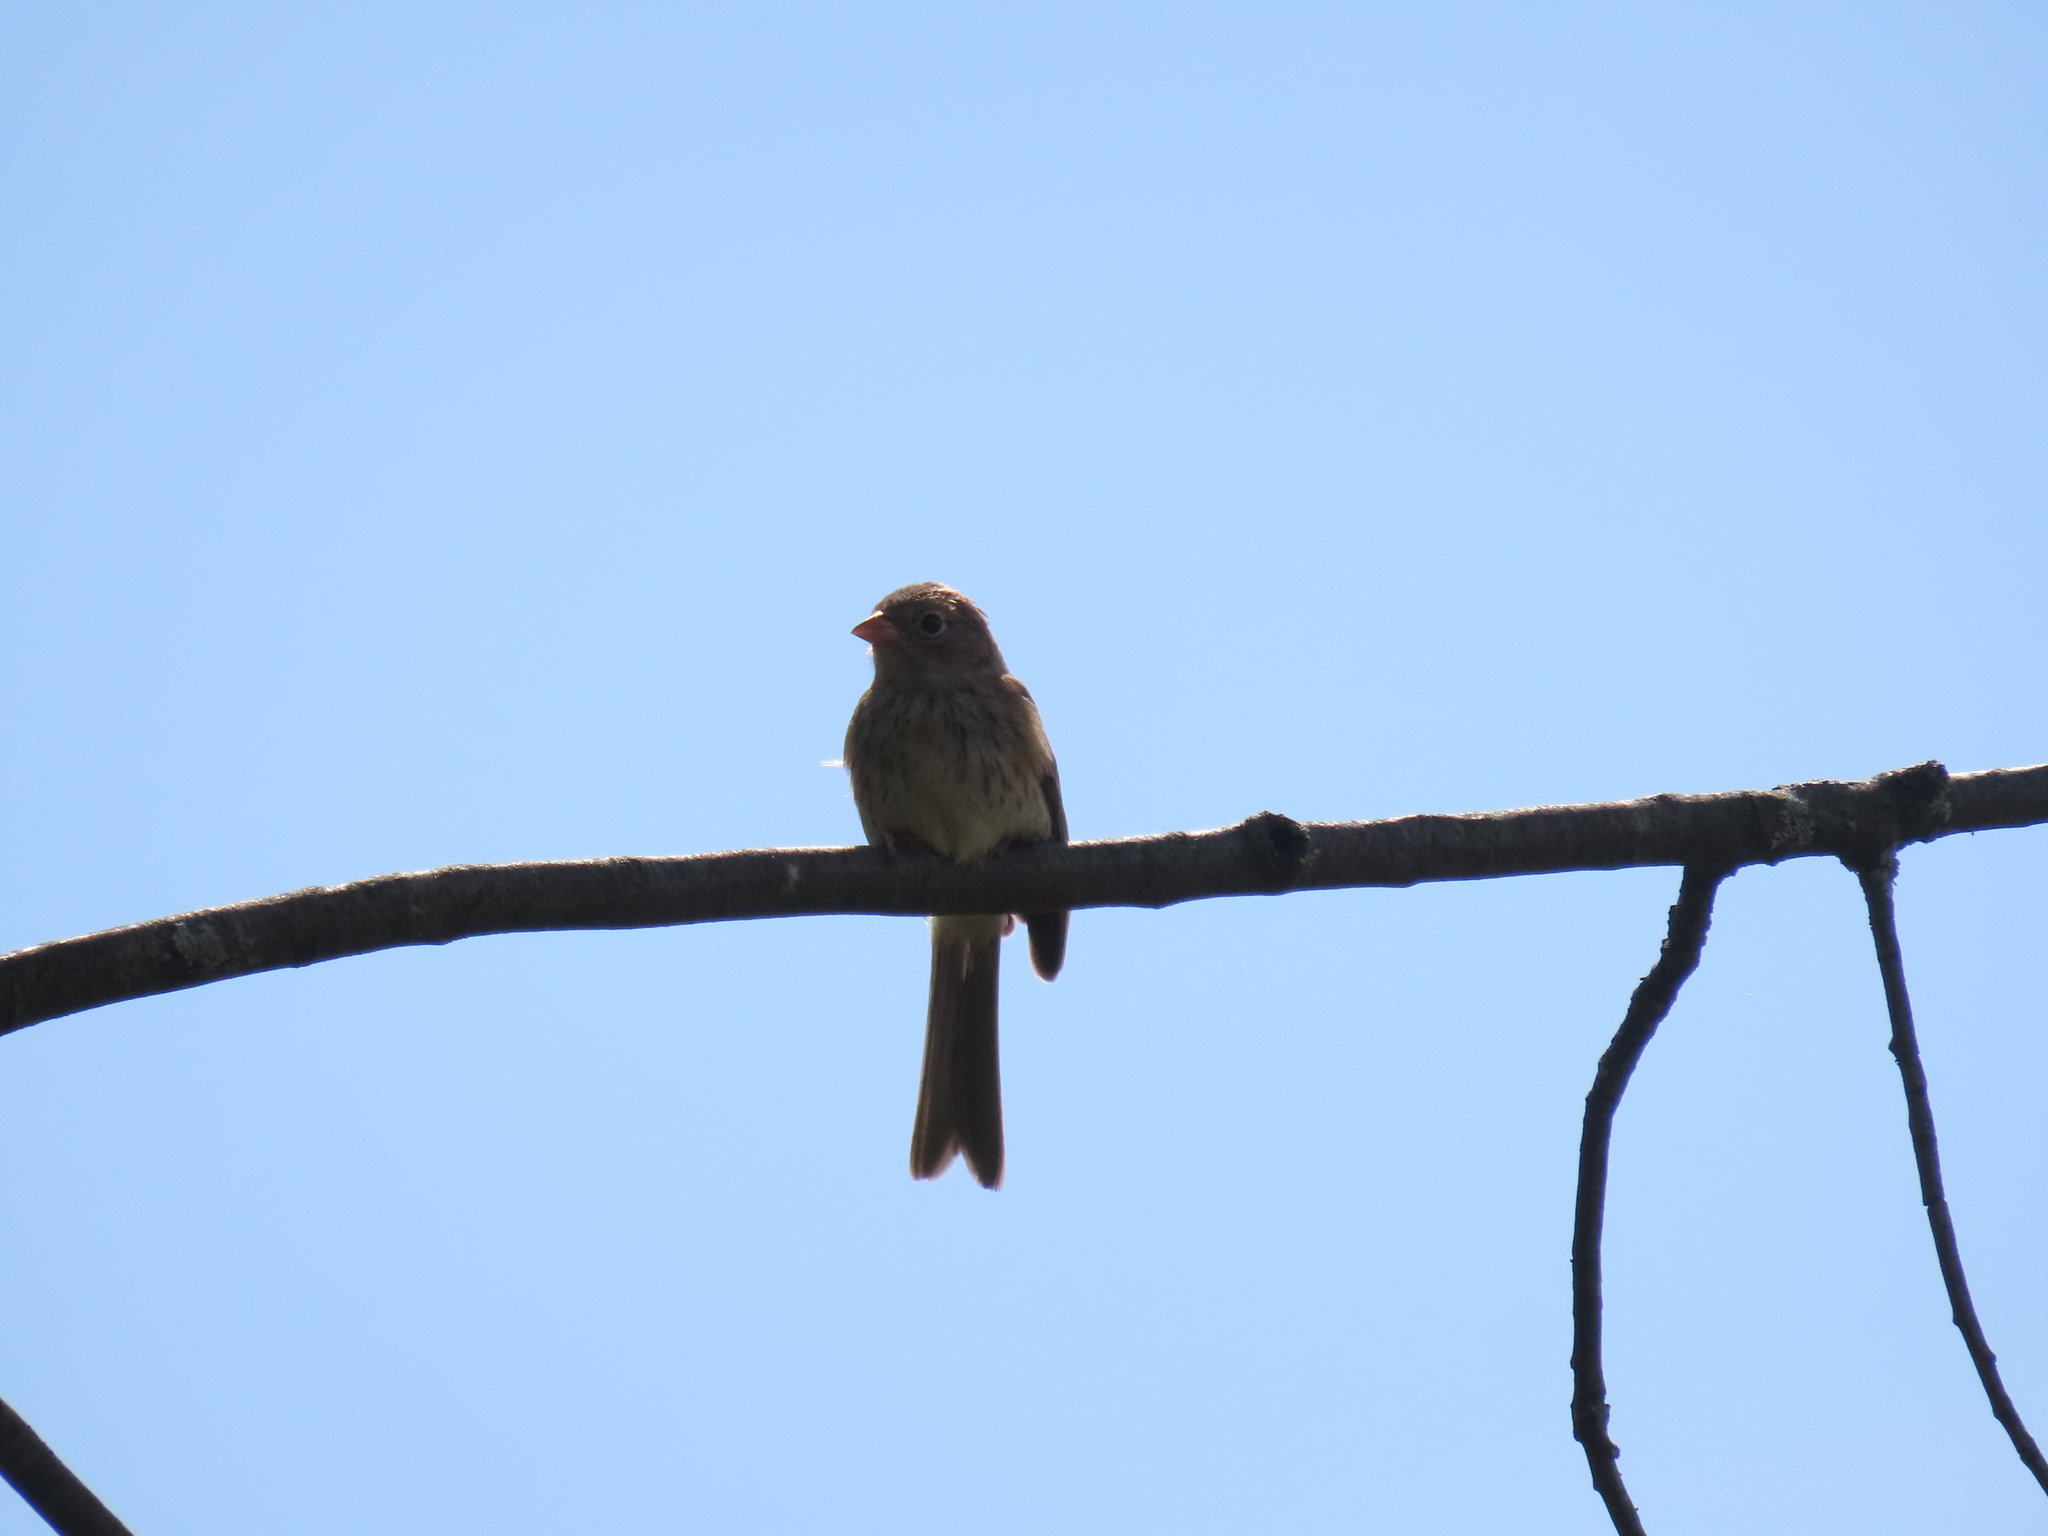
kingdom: Animalia
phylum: Chordata
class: Aves
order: Passeriformes
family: Passerellidae
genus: Spizella
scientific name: Spizella pusilla
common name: Field sparrow
